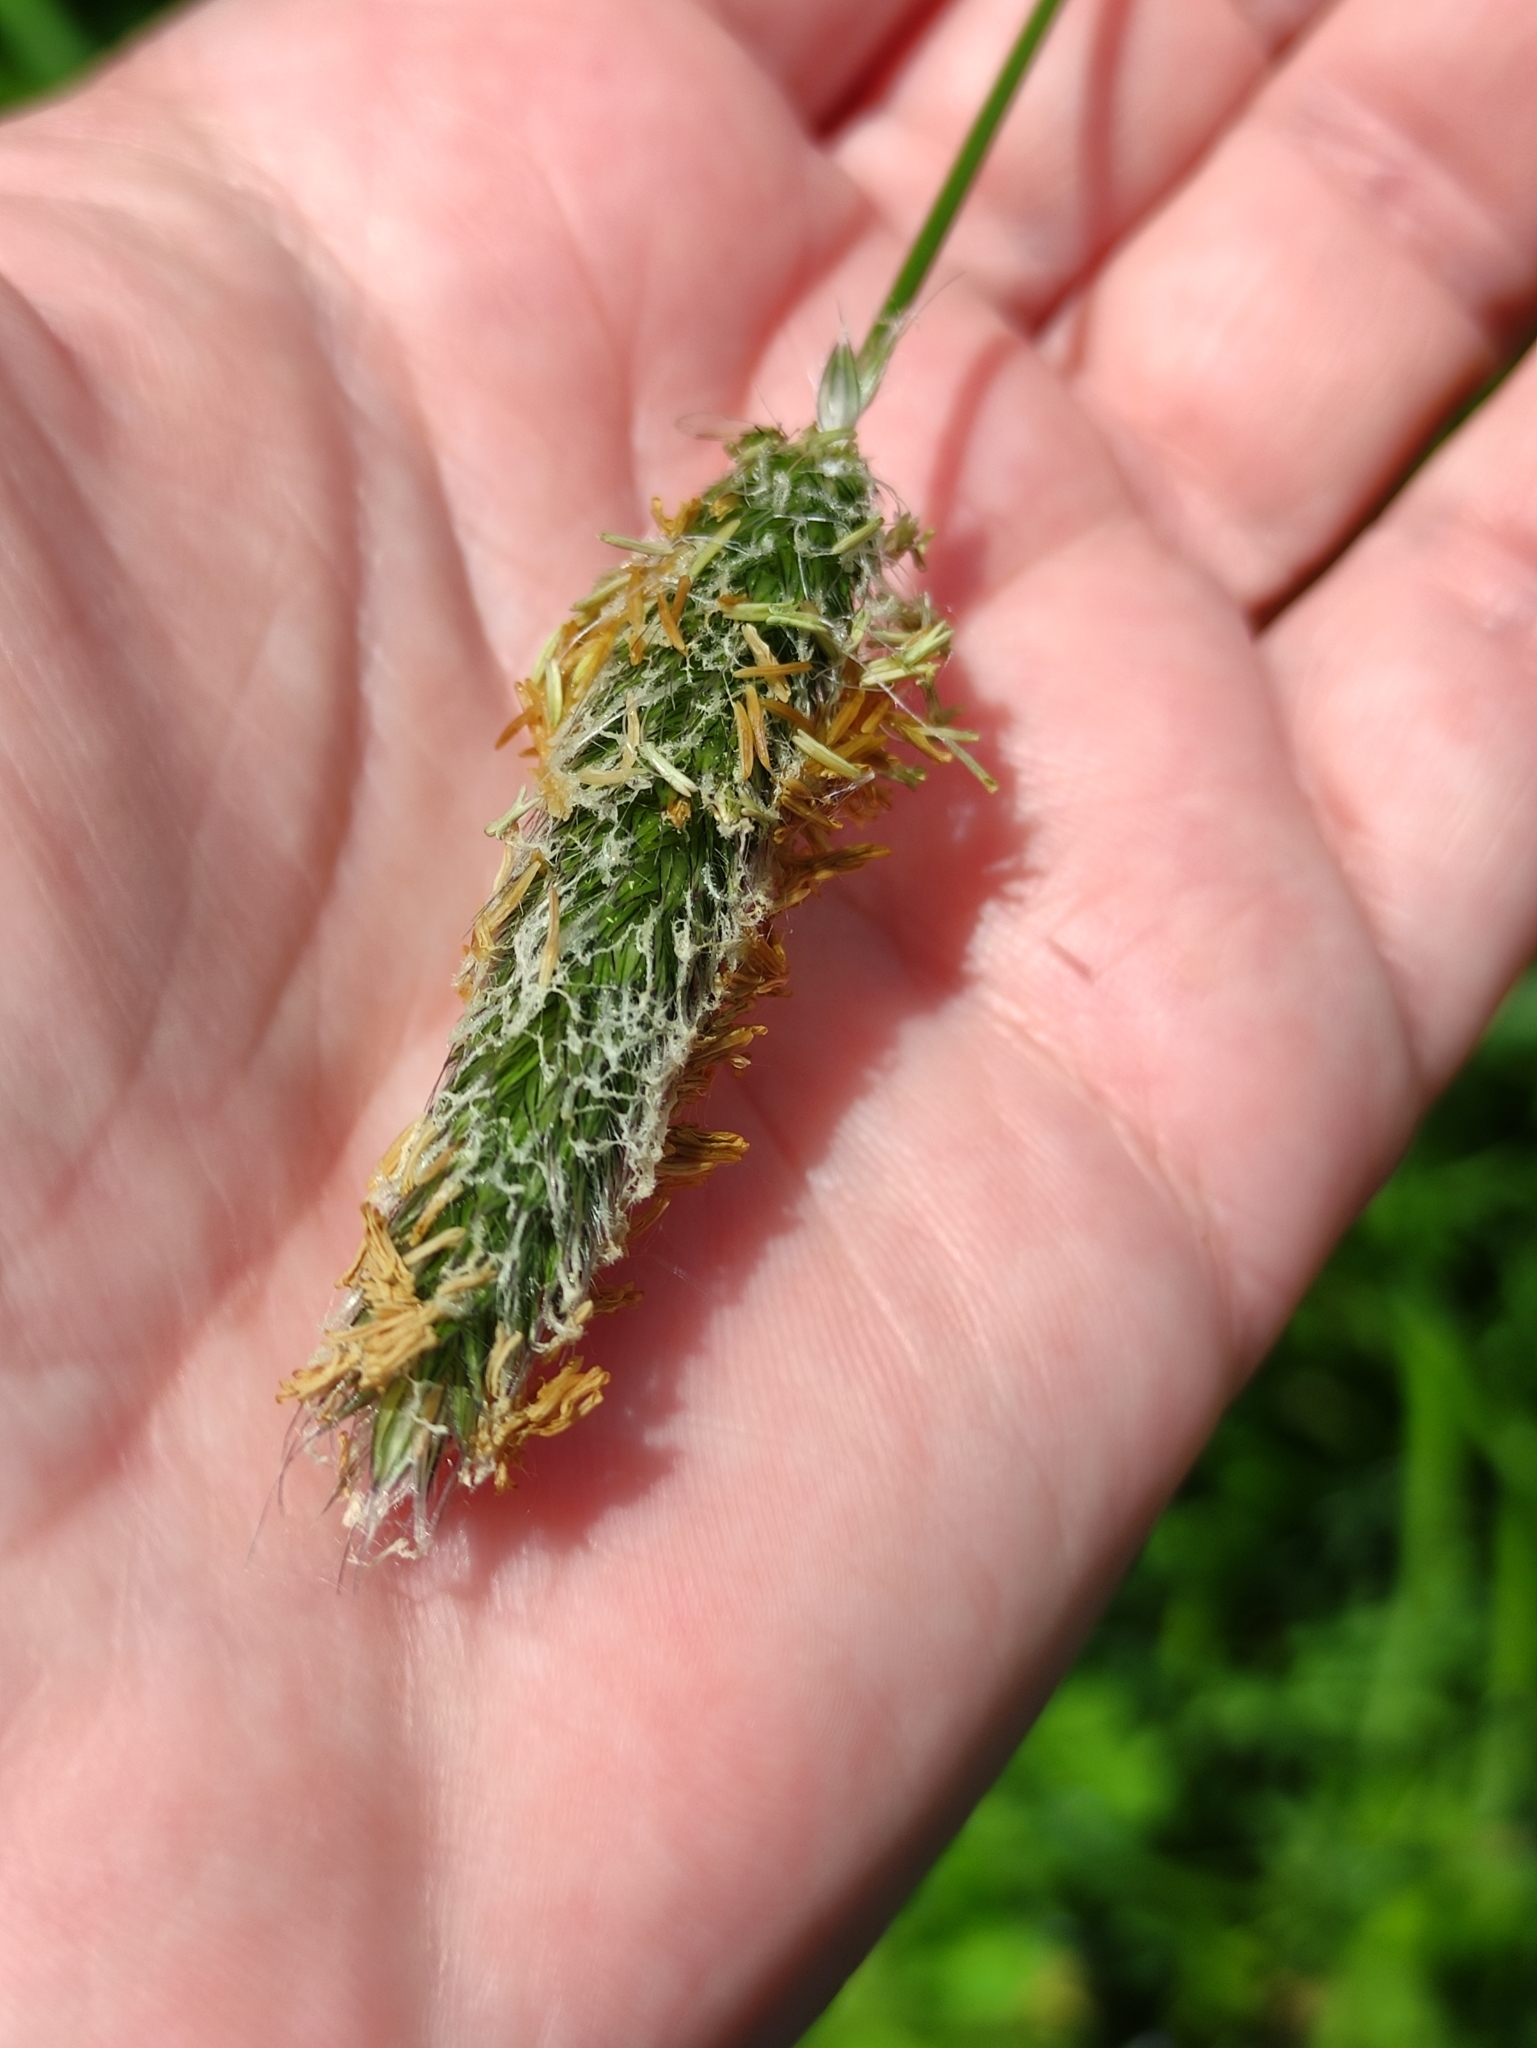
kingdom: Plantae
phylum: Tracheophyta
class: Liliopsida
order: Poales
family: Poaceae
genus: Alopecurus
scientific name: Alopecurus pratensis
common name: Meadow foxtail
